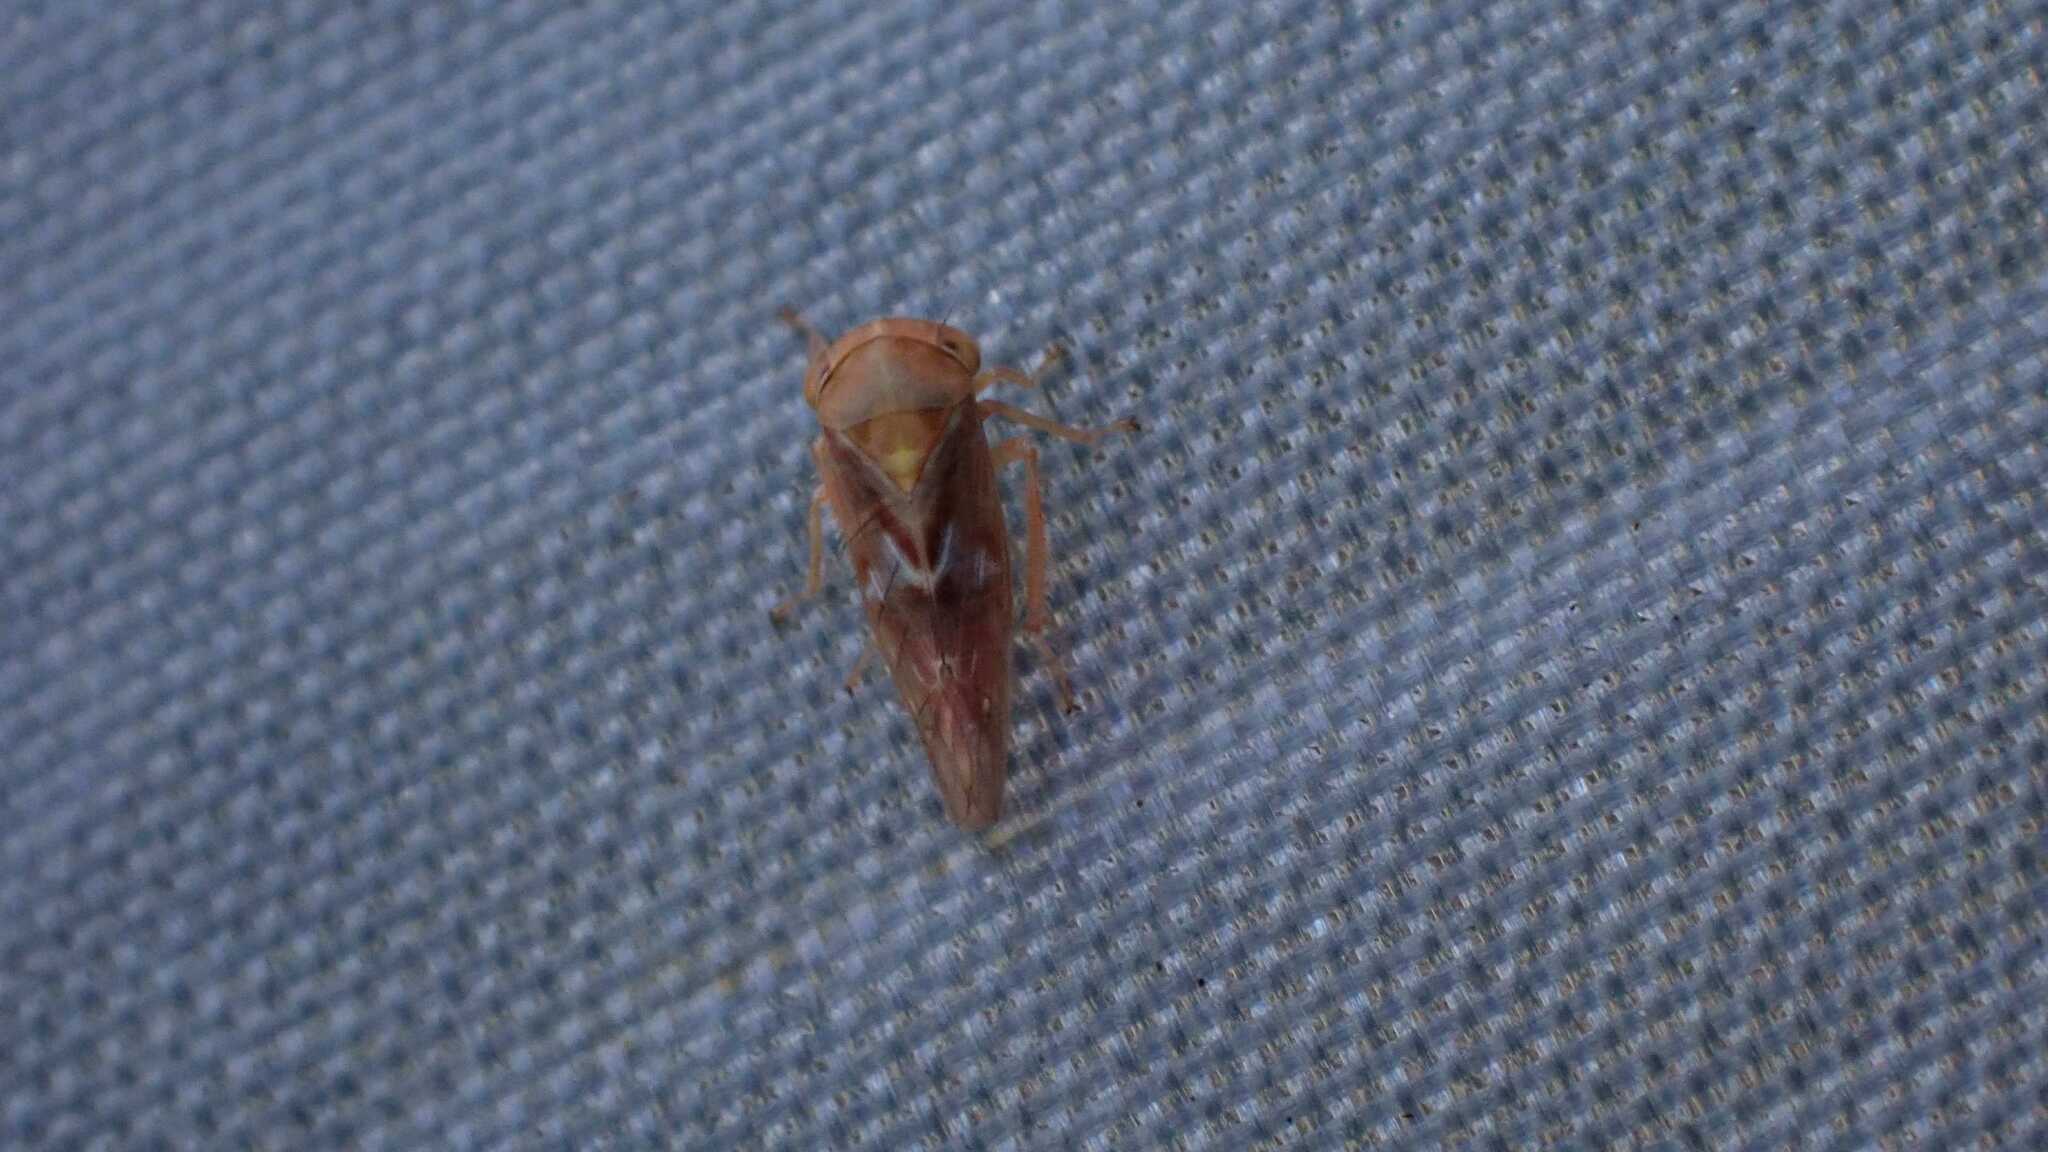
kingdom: Animalia
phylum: Arthropoda
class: Insecta
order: Hemiptera
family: Cicadellidae
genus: Tremulicerus
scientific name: Tremulicerus fulgidus
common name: Leafhopper
